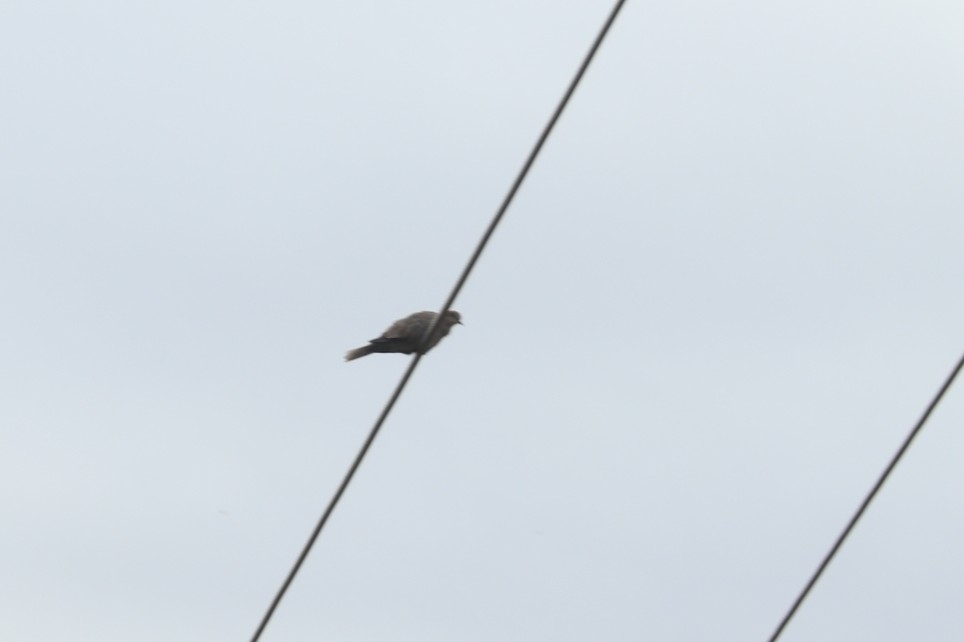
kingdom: Animalia
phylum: Chordata
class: Aves
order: Columbiformes
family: Columbidae
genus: Streptopelia
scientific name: Streptopelia decaocto
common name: Eurasian collared dove
